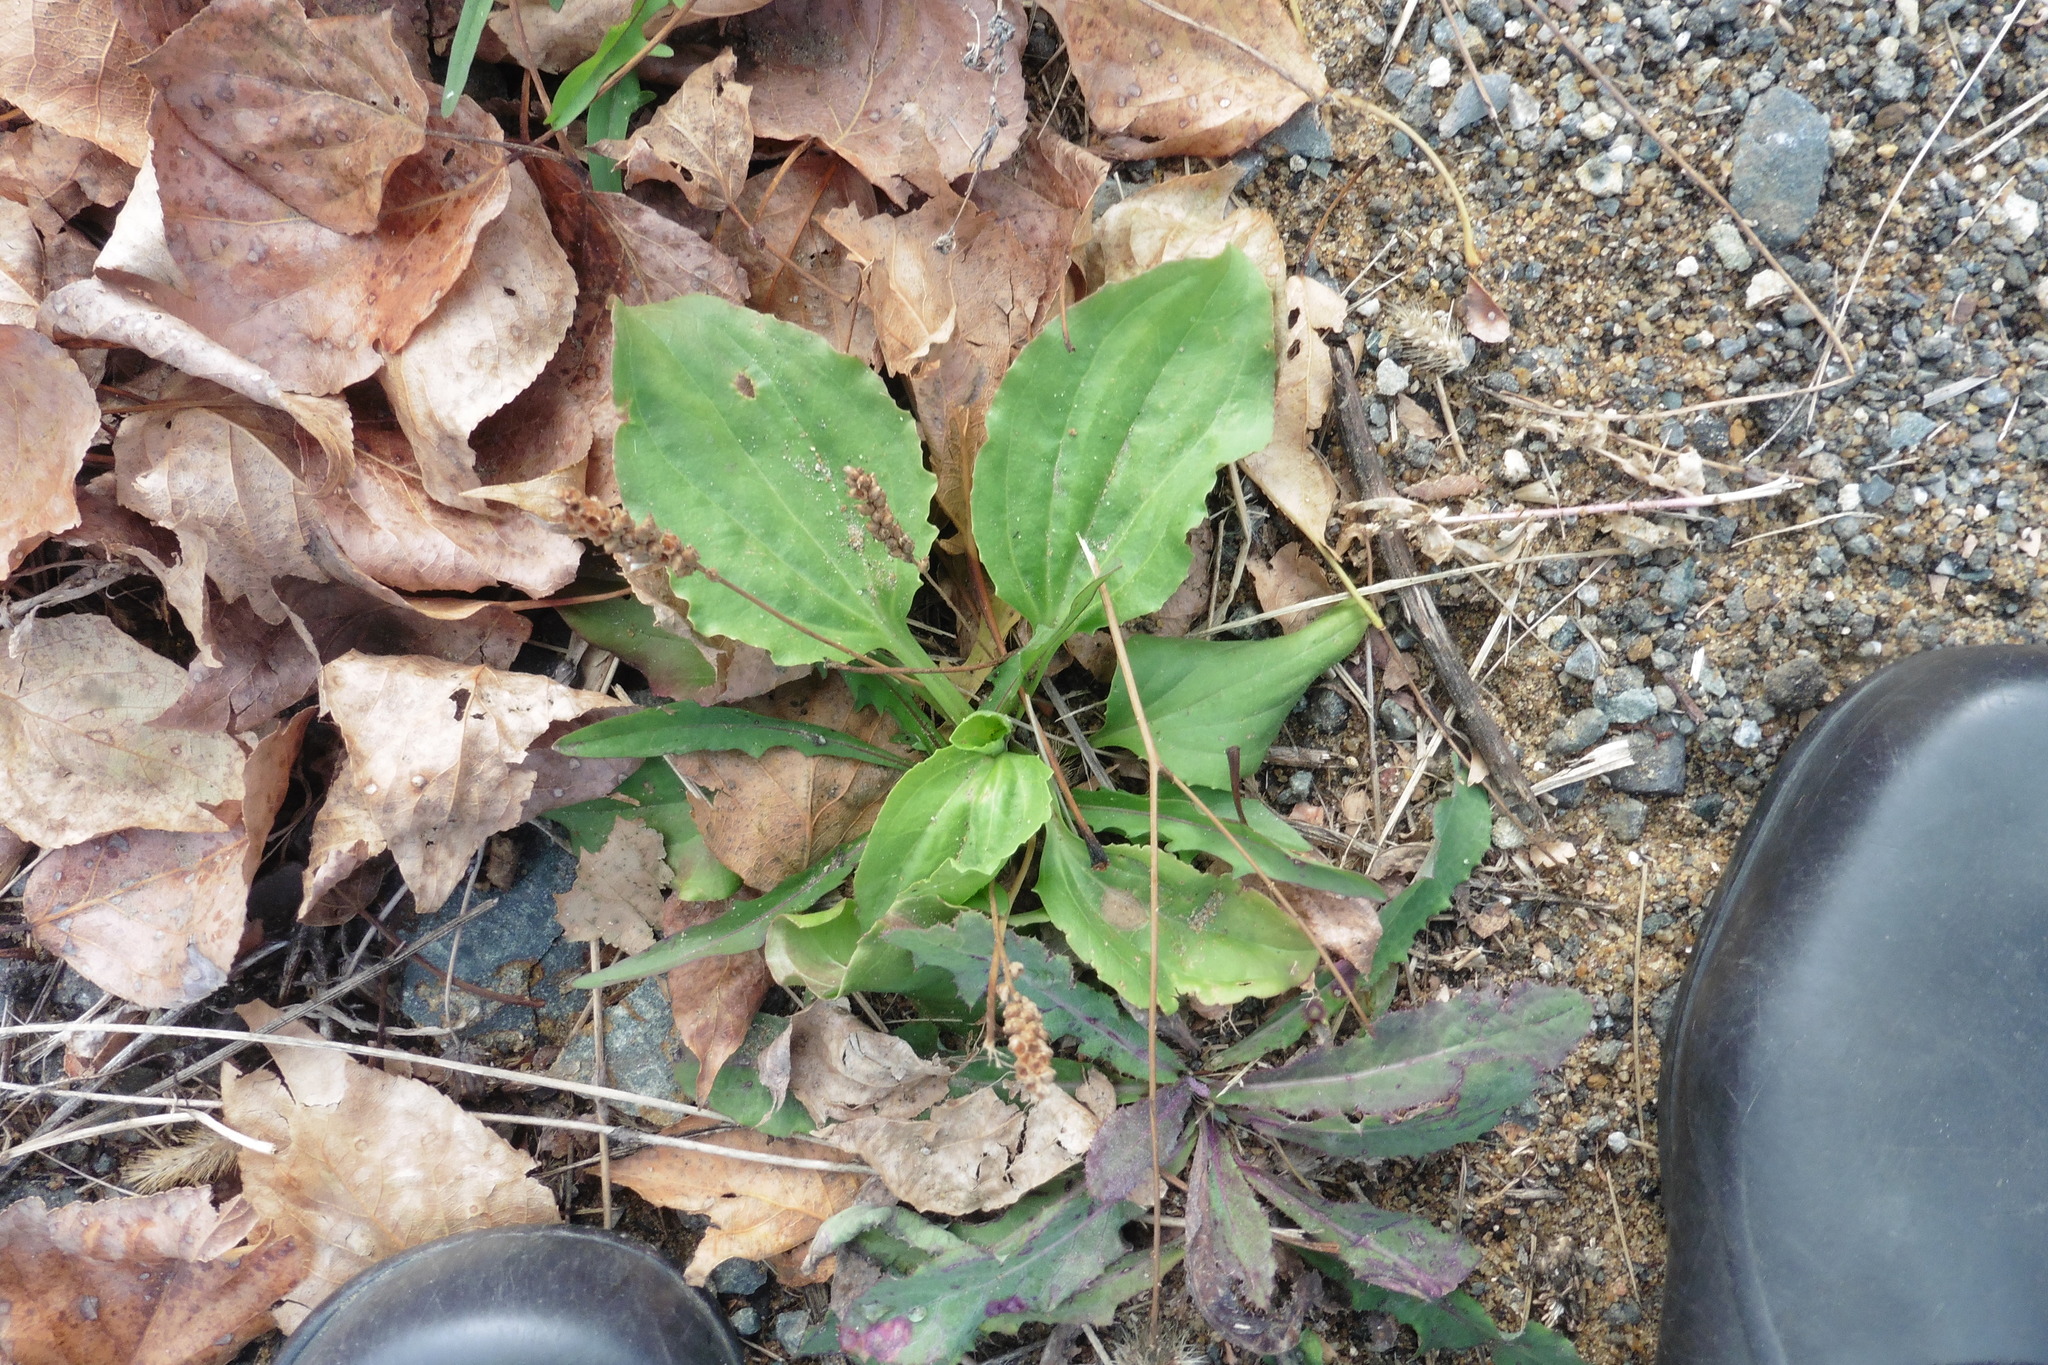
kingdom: Plantae
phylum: Tracheophyta
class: Magnoliopsida
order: Lamiales
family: Plantaginaceae
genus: Plantago
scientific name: Plantago major
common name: Common plantain
